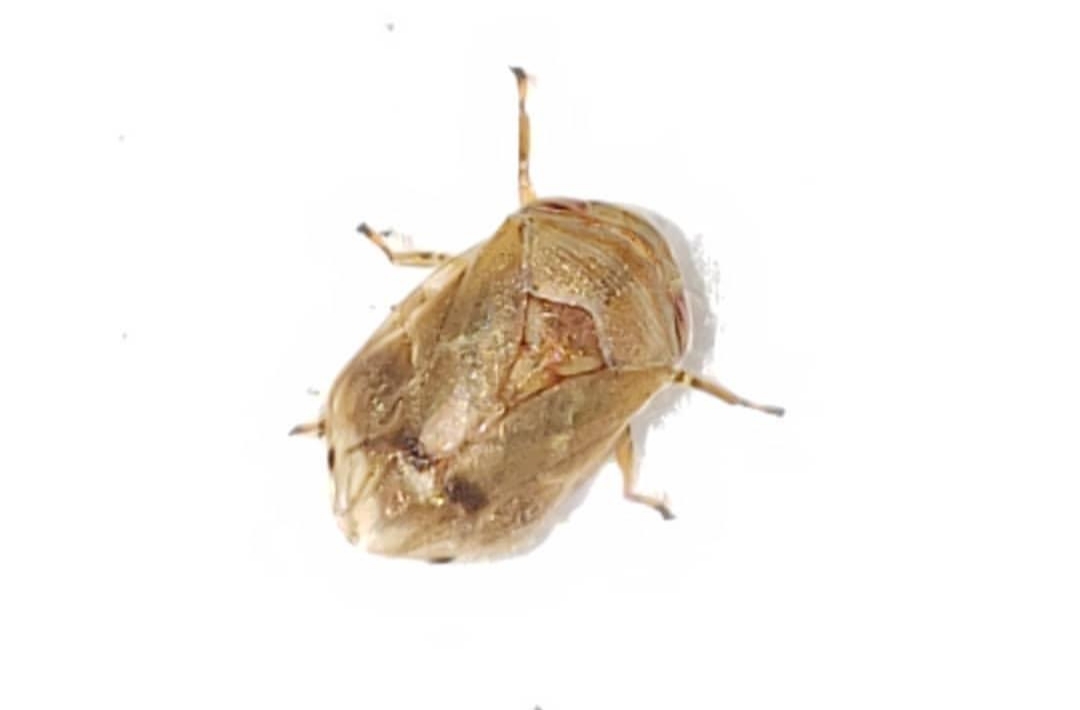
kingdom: Animalia
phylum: Arthropoda
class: Insecta
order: Hemiptera
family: Clastopteridae
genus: Clastoptera
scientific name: Clastoptera querci
